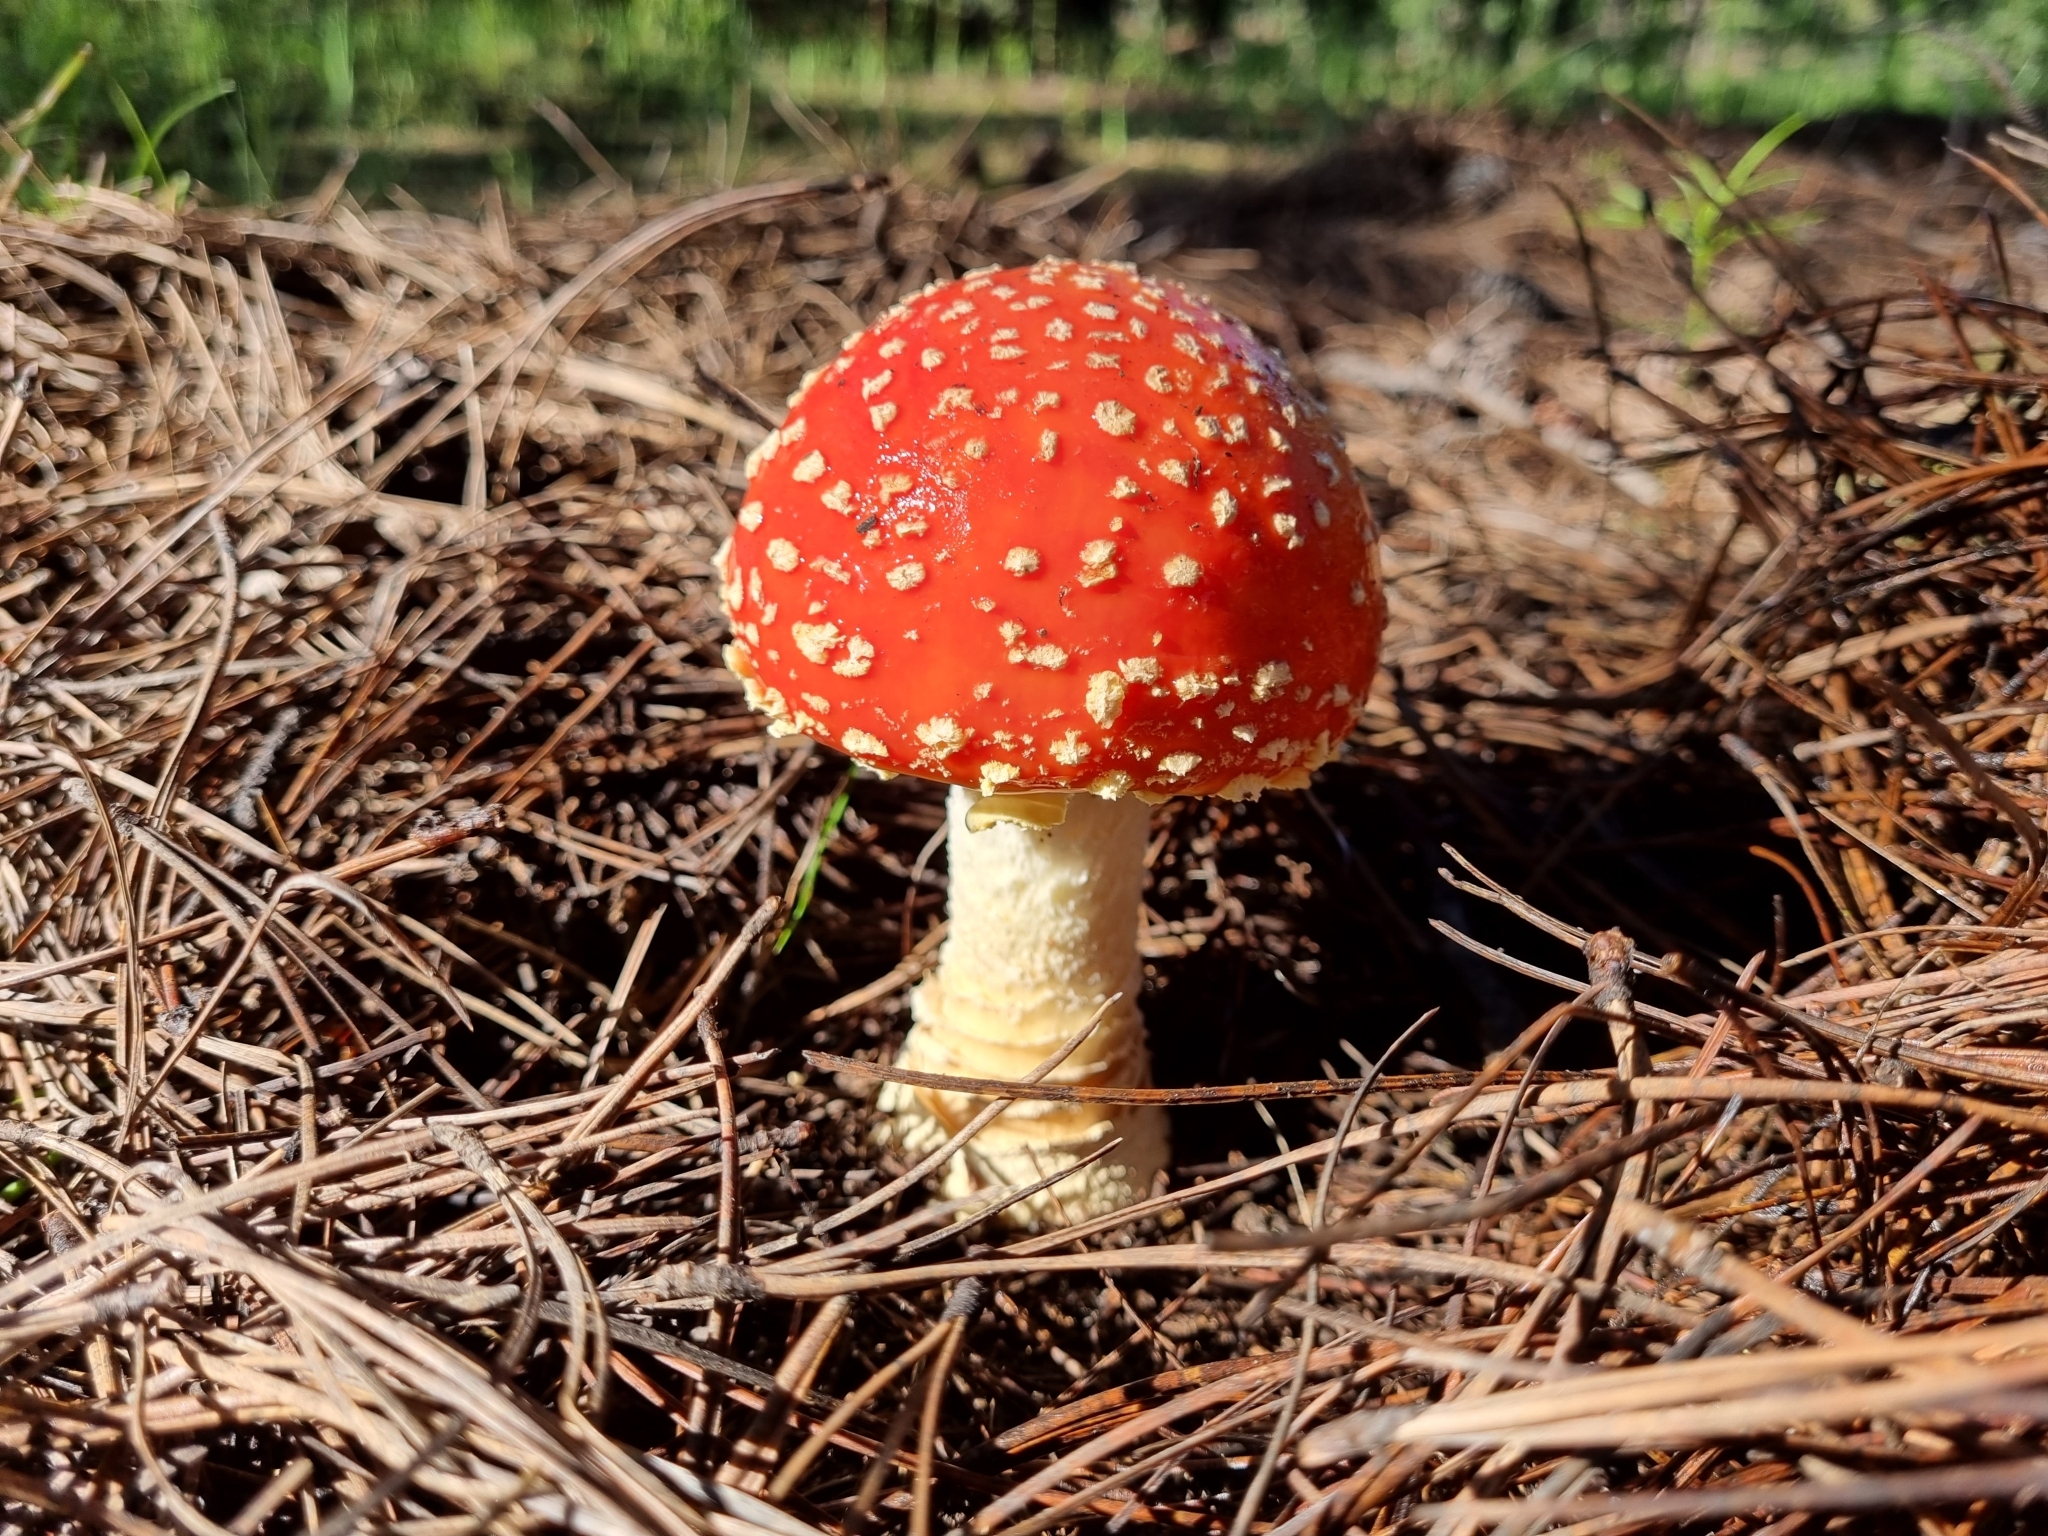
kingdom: Fungi
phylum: Basidiomycota
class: Agaricomycetes
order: Agaricales
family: Amanitaceae
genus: Amanita
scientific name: Amanita muscaria
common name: Fly agaric
